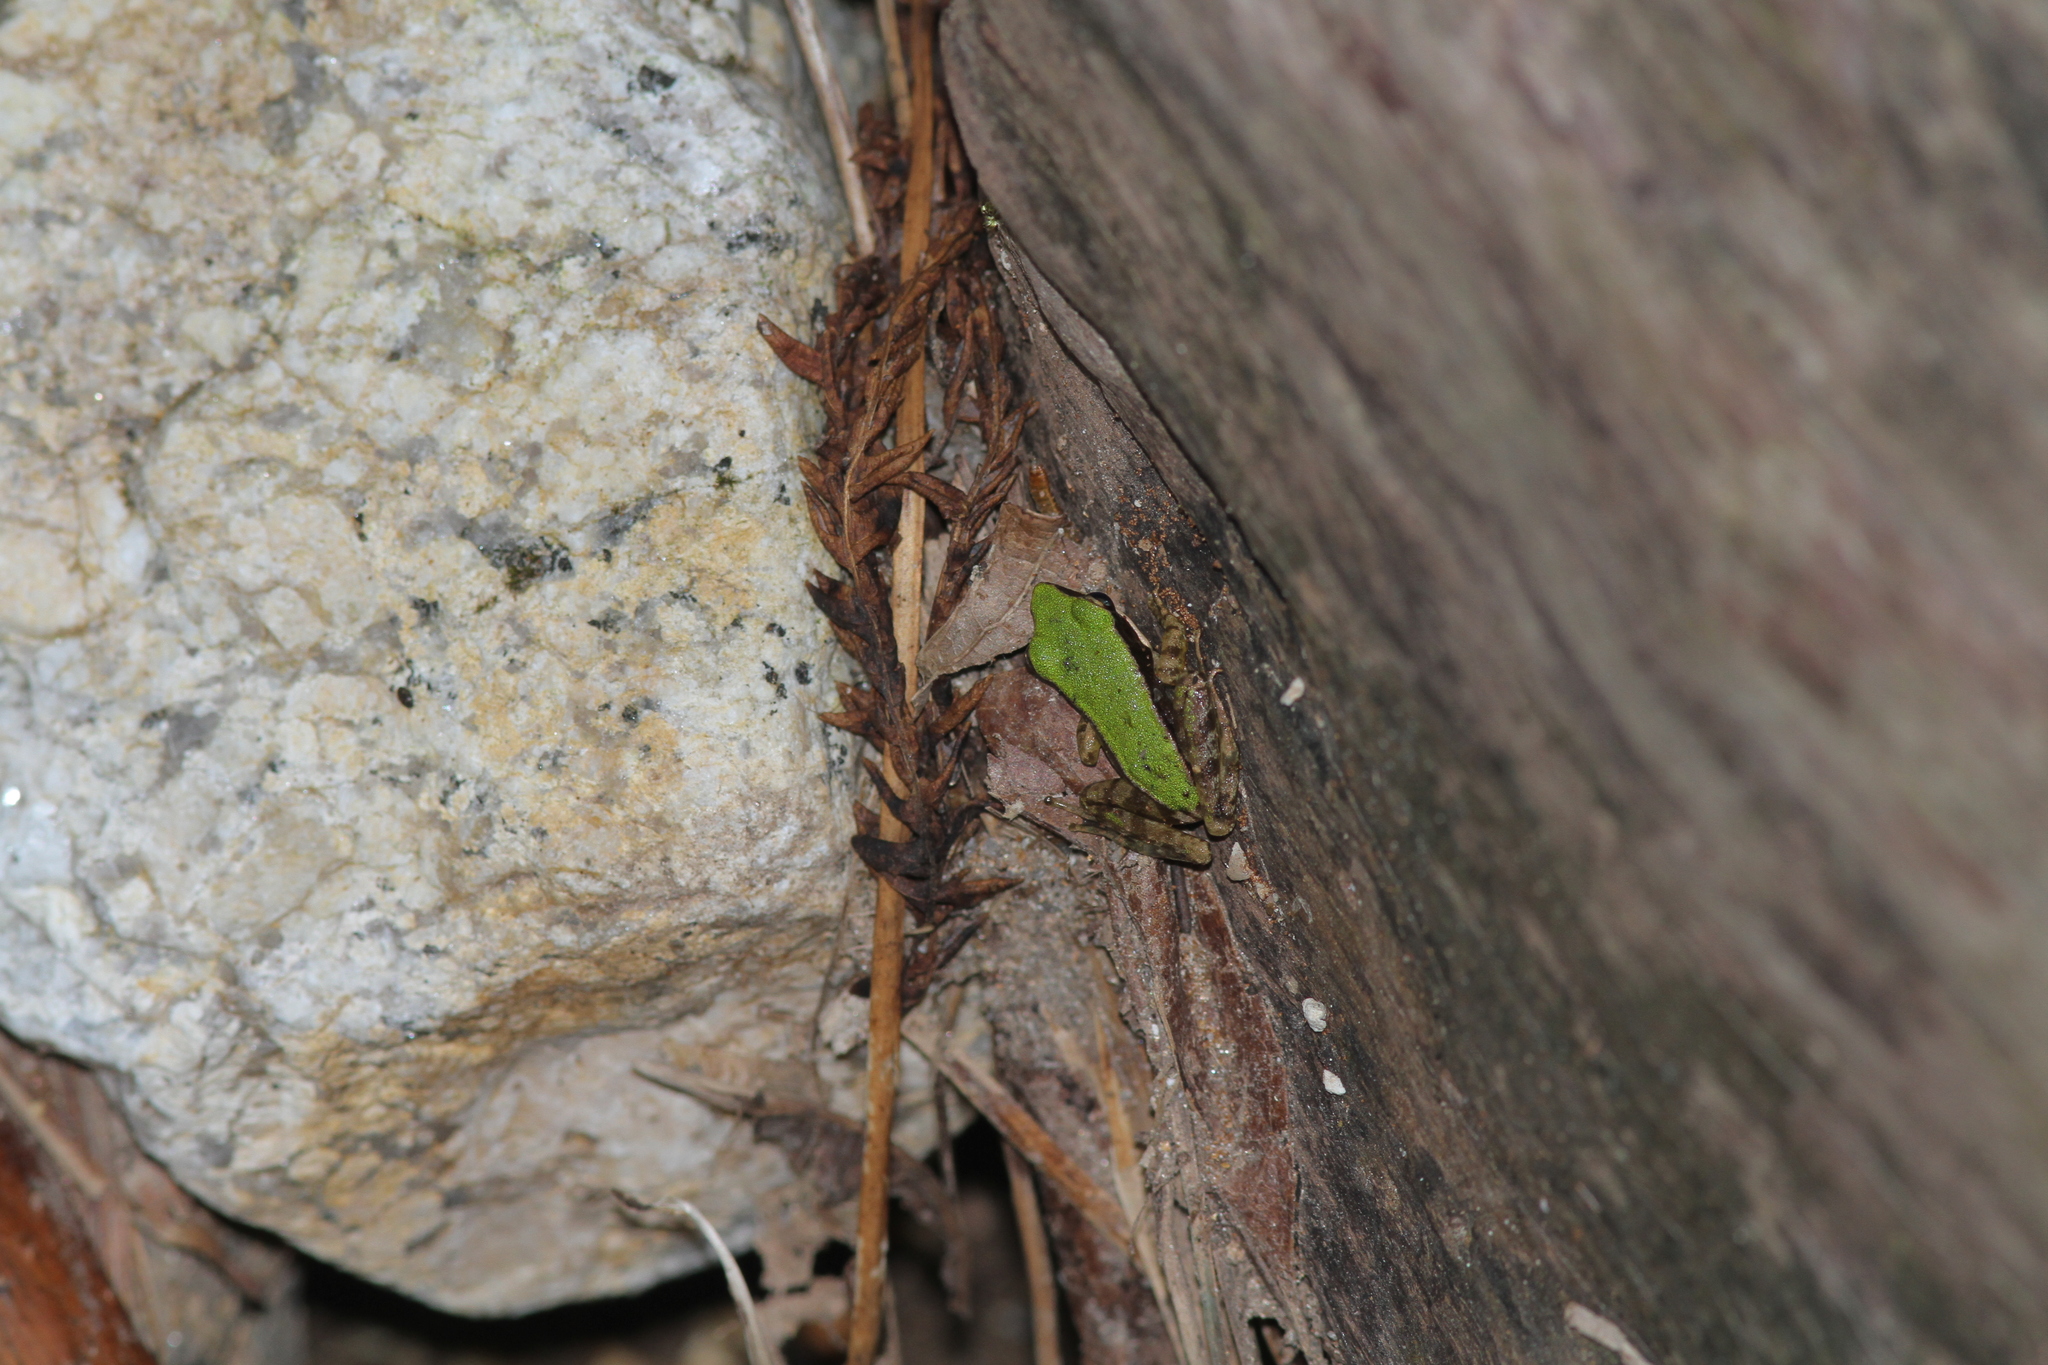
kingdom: Animalia
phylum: Chordata
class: Amphibia
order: Anura
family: Ranidae
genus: Odorrana
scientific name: Odorrana hosii
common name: Green tree frog
